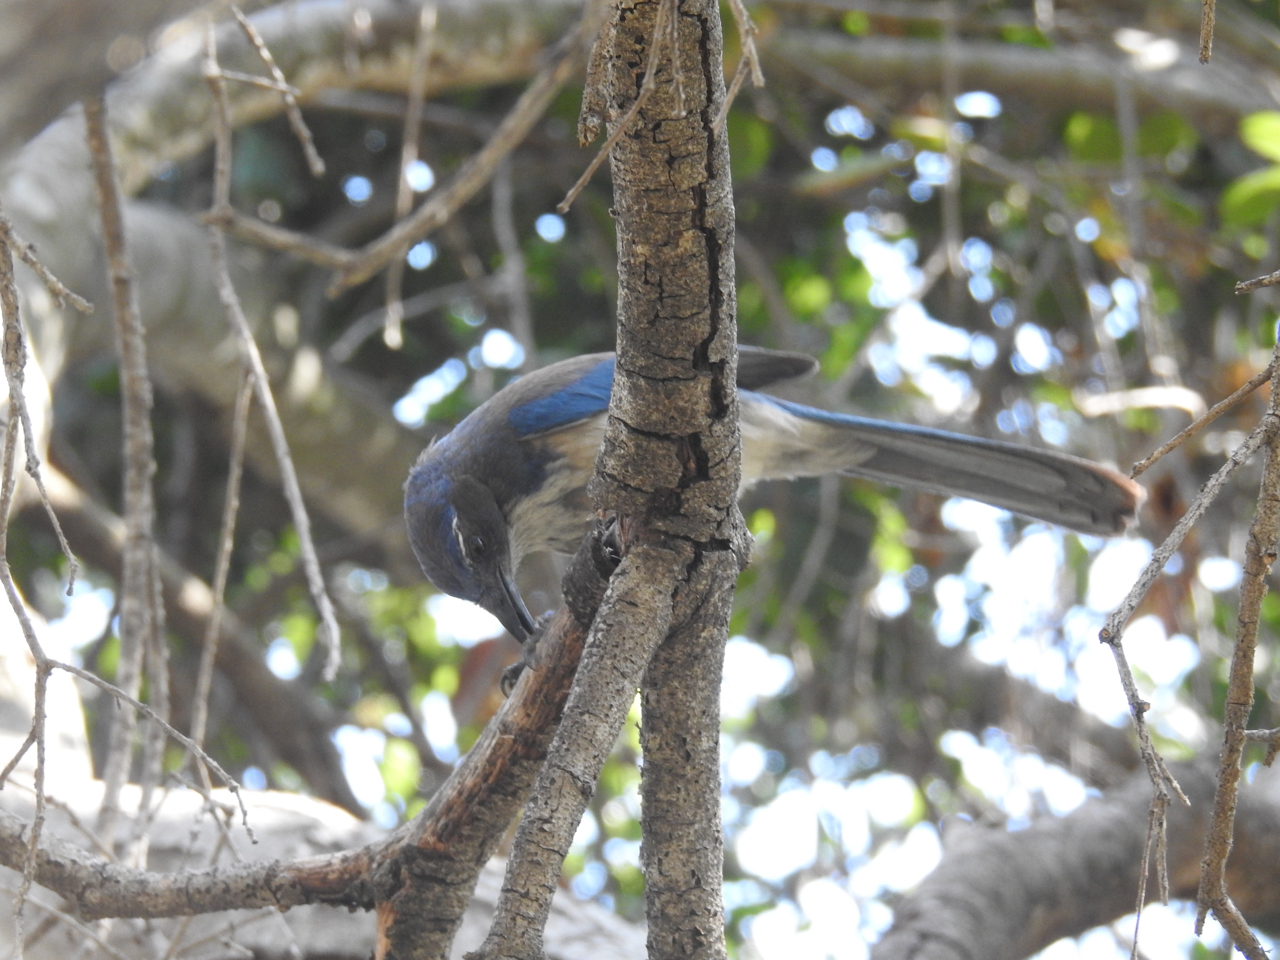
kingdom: Animalia
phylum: Chordata
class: Aves
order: Passeriformes
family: Corvidae
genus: Aphelocoma
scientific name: Aphelocoma californica
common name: California scrub-jay
